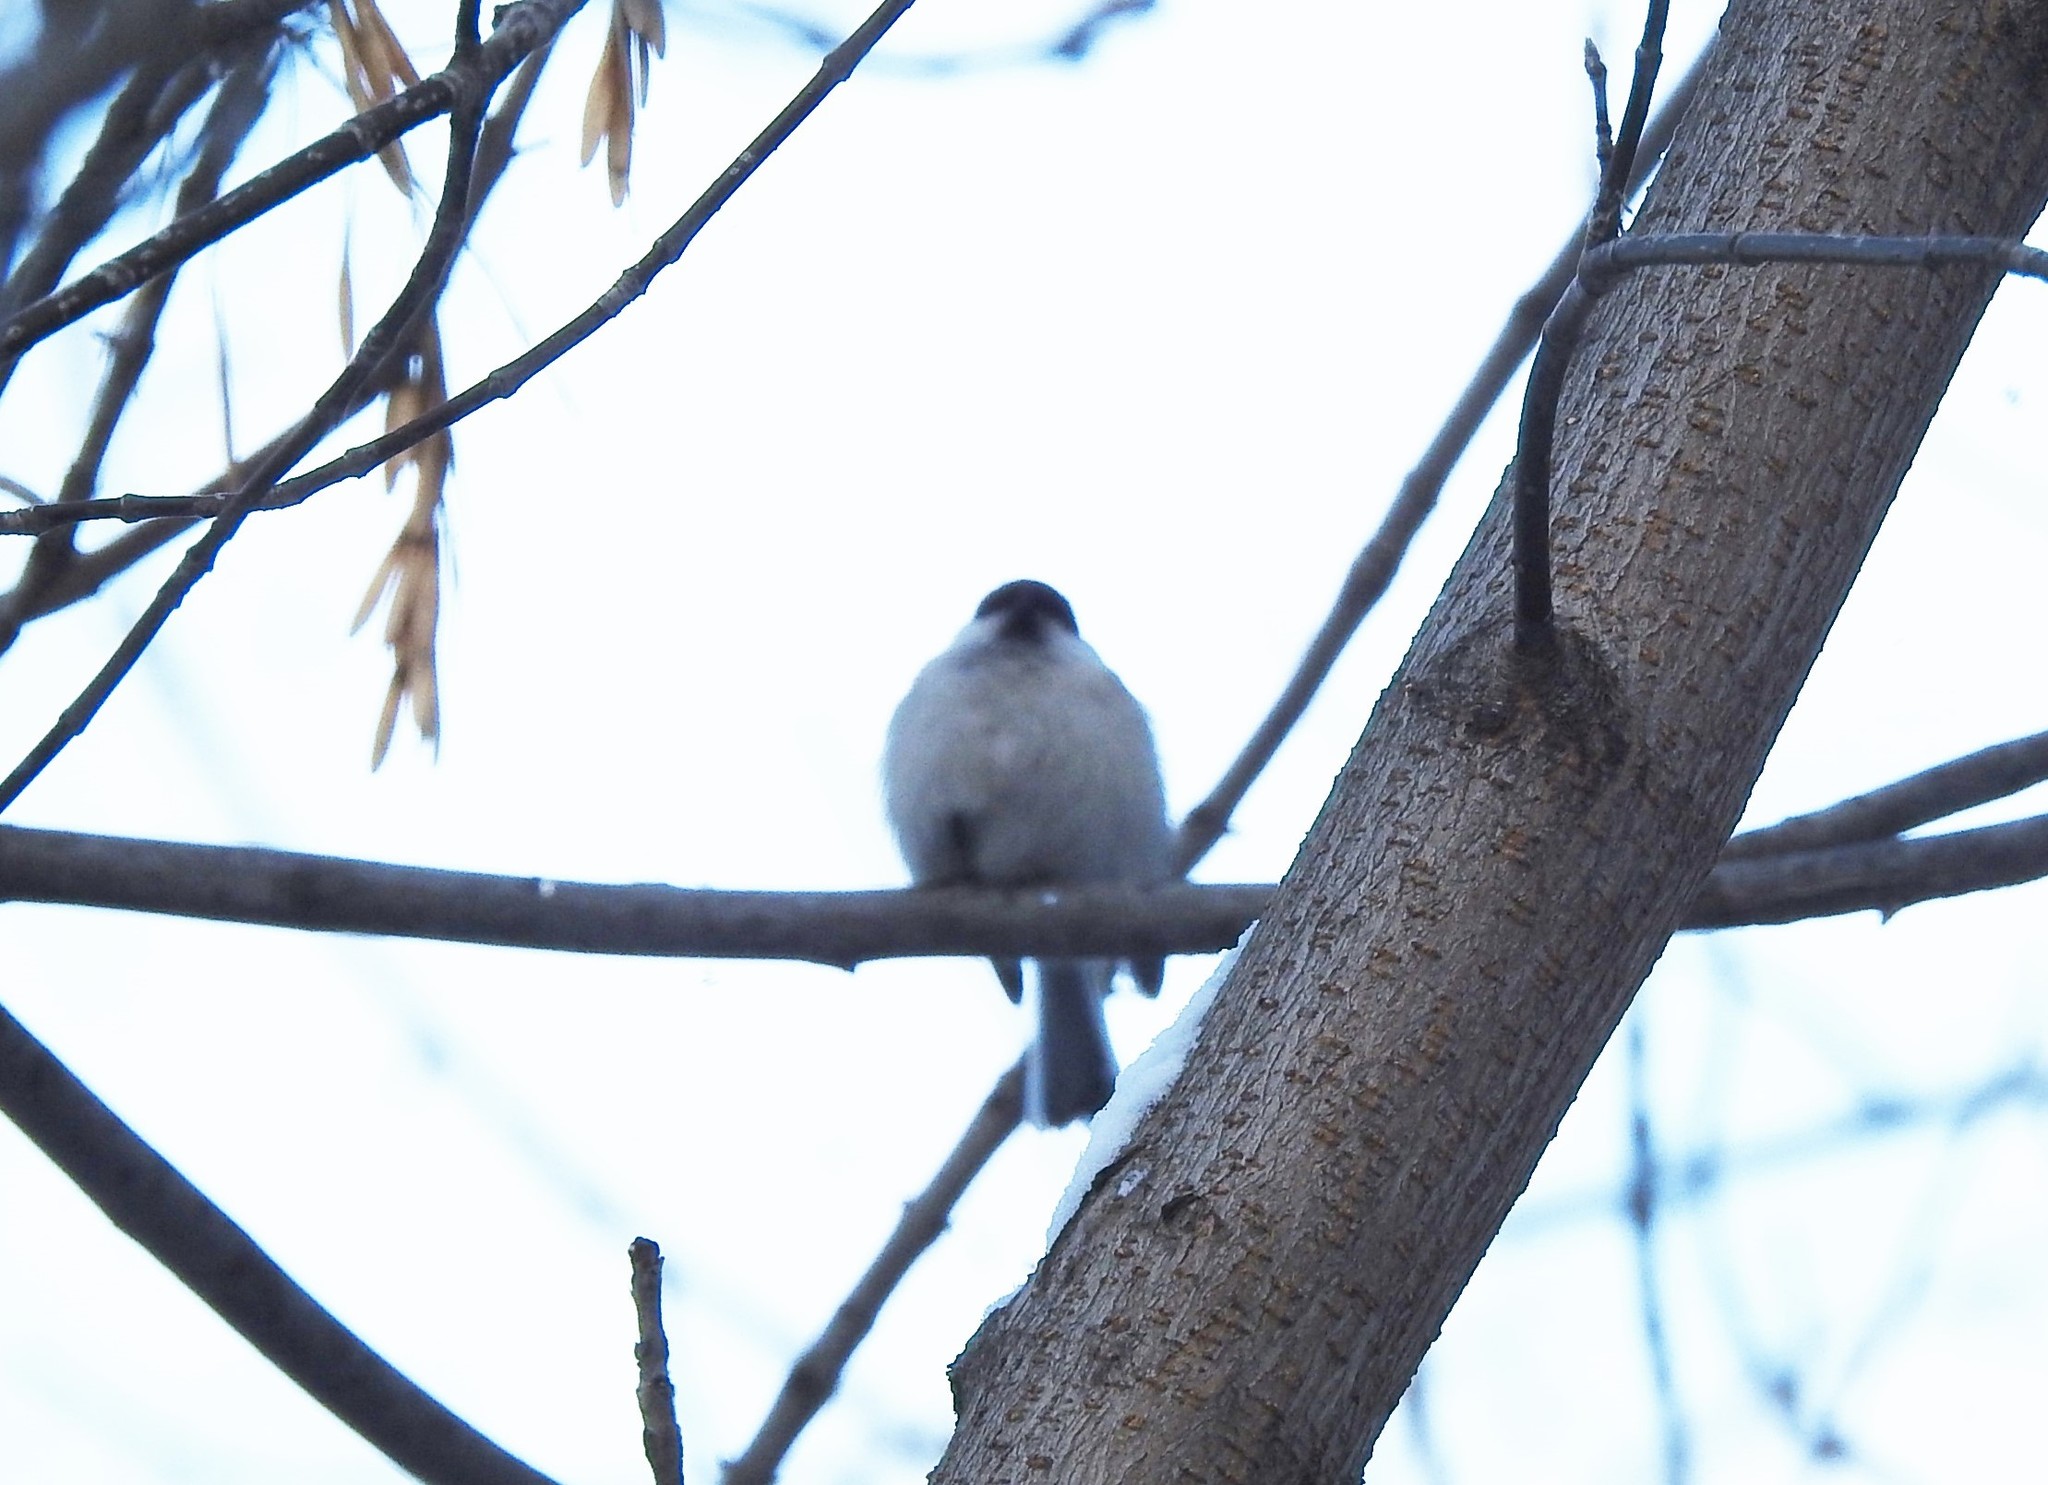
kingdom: Animalia
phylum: Chordata
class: Aves
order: Passeriformes
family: Paridae
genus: Poecile
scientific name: Poecile montanus
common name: Willow tit
